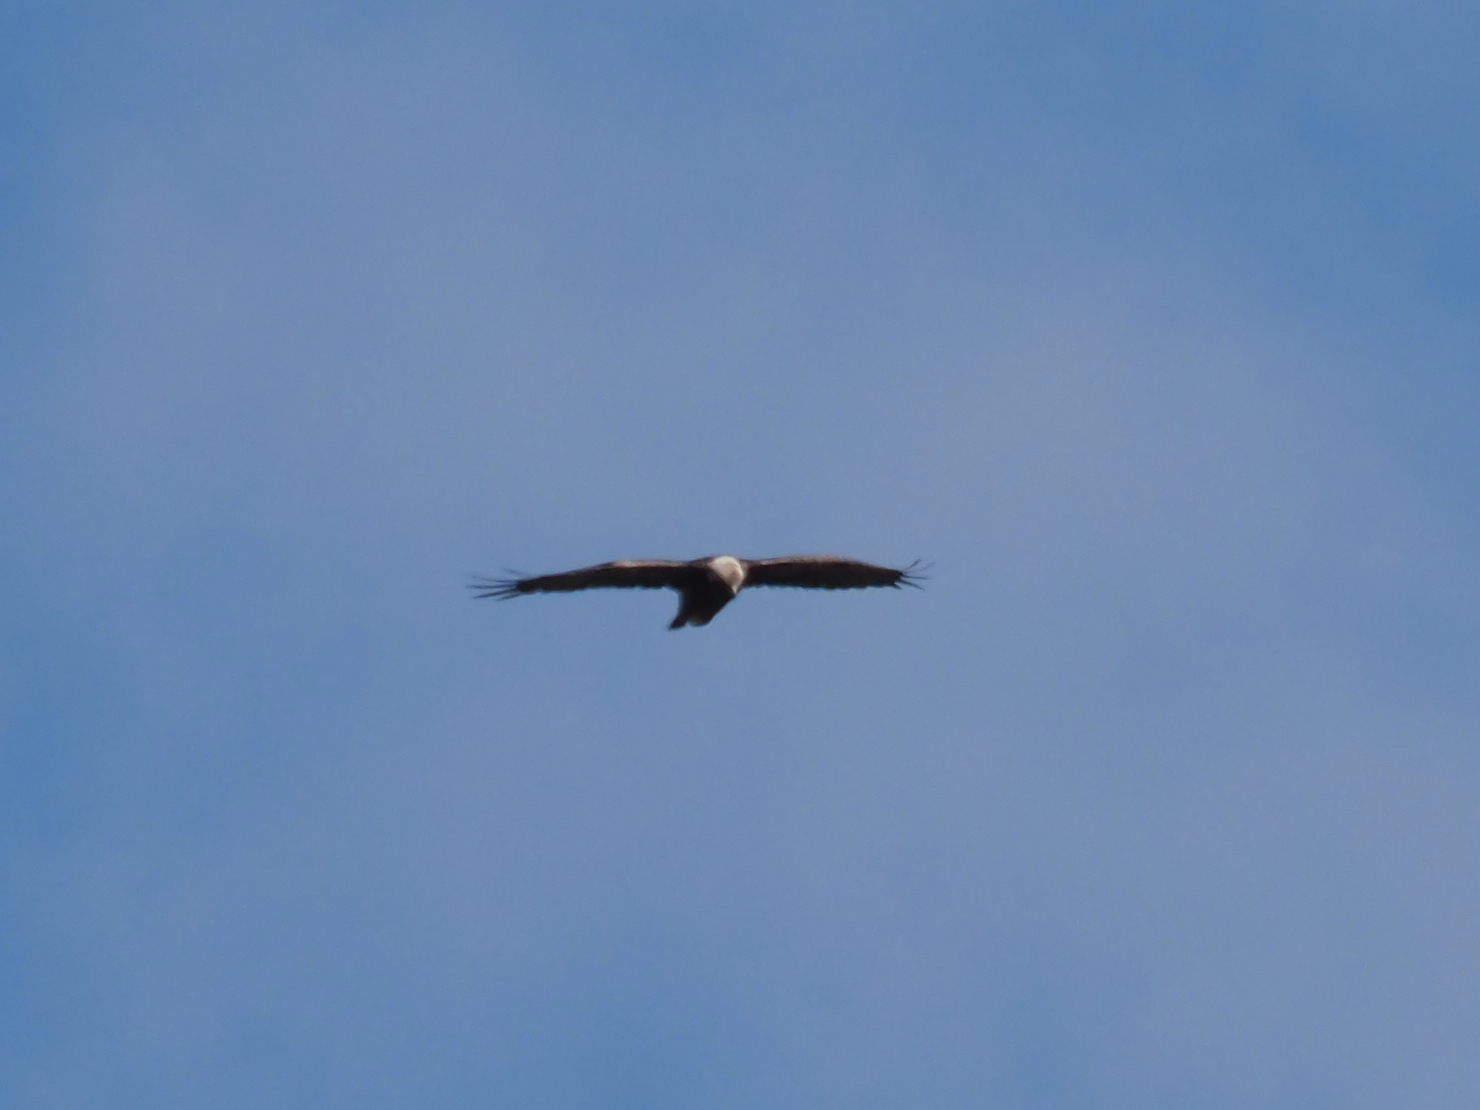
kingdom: Animalia
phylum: Chordata
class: Aves
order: Accipitriformes
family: Accipitridae
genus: Aquila
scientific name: Aquila chrysaetos
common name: Golden eagle
